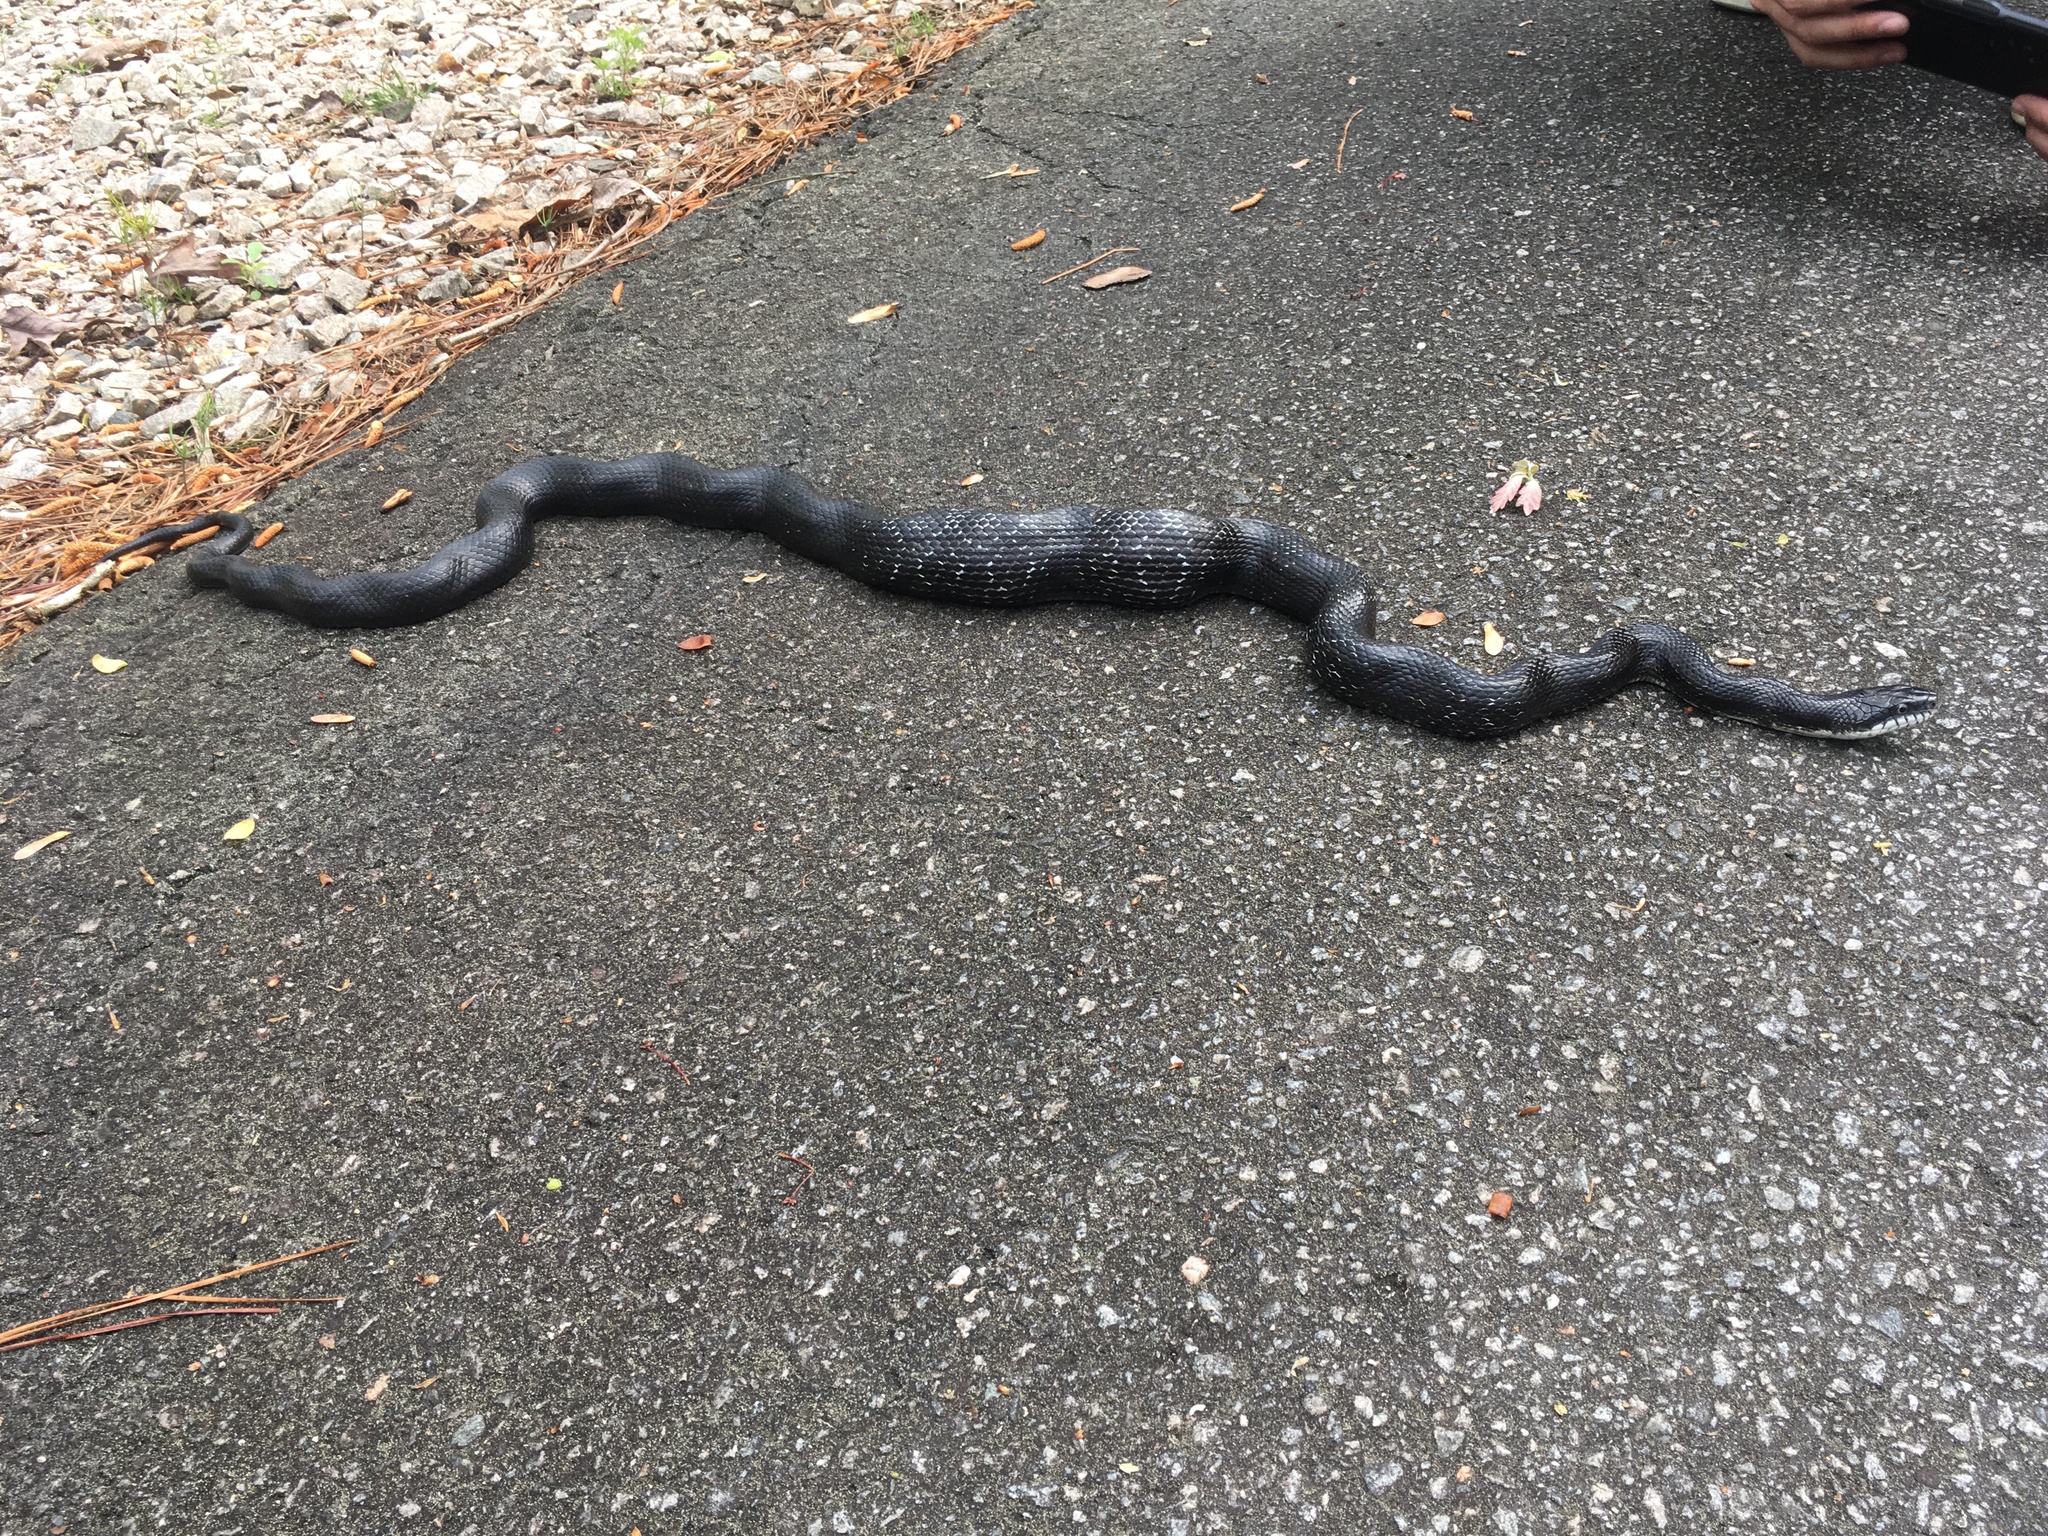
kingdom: Animalia
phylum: Chordata
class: Squamata
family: Colubridae
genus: Pantherophis
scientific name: Pantherophis
